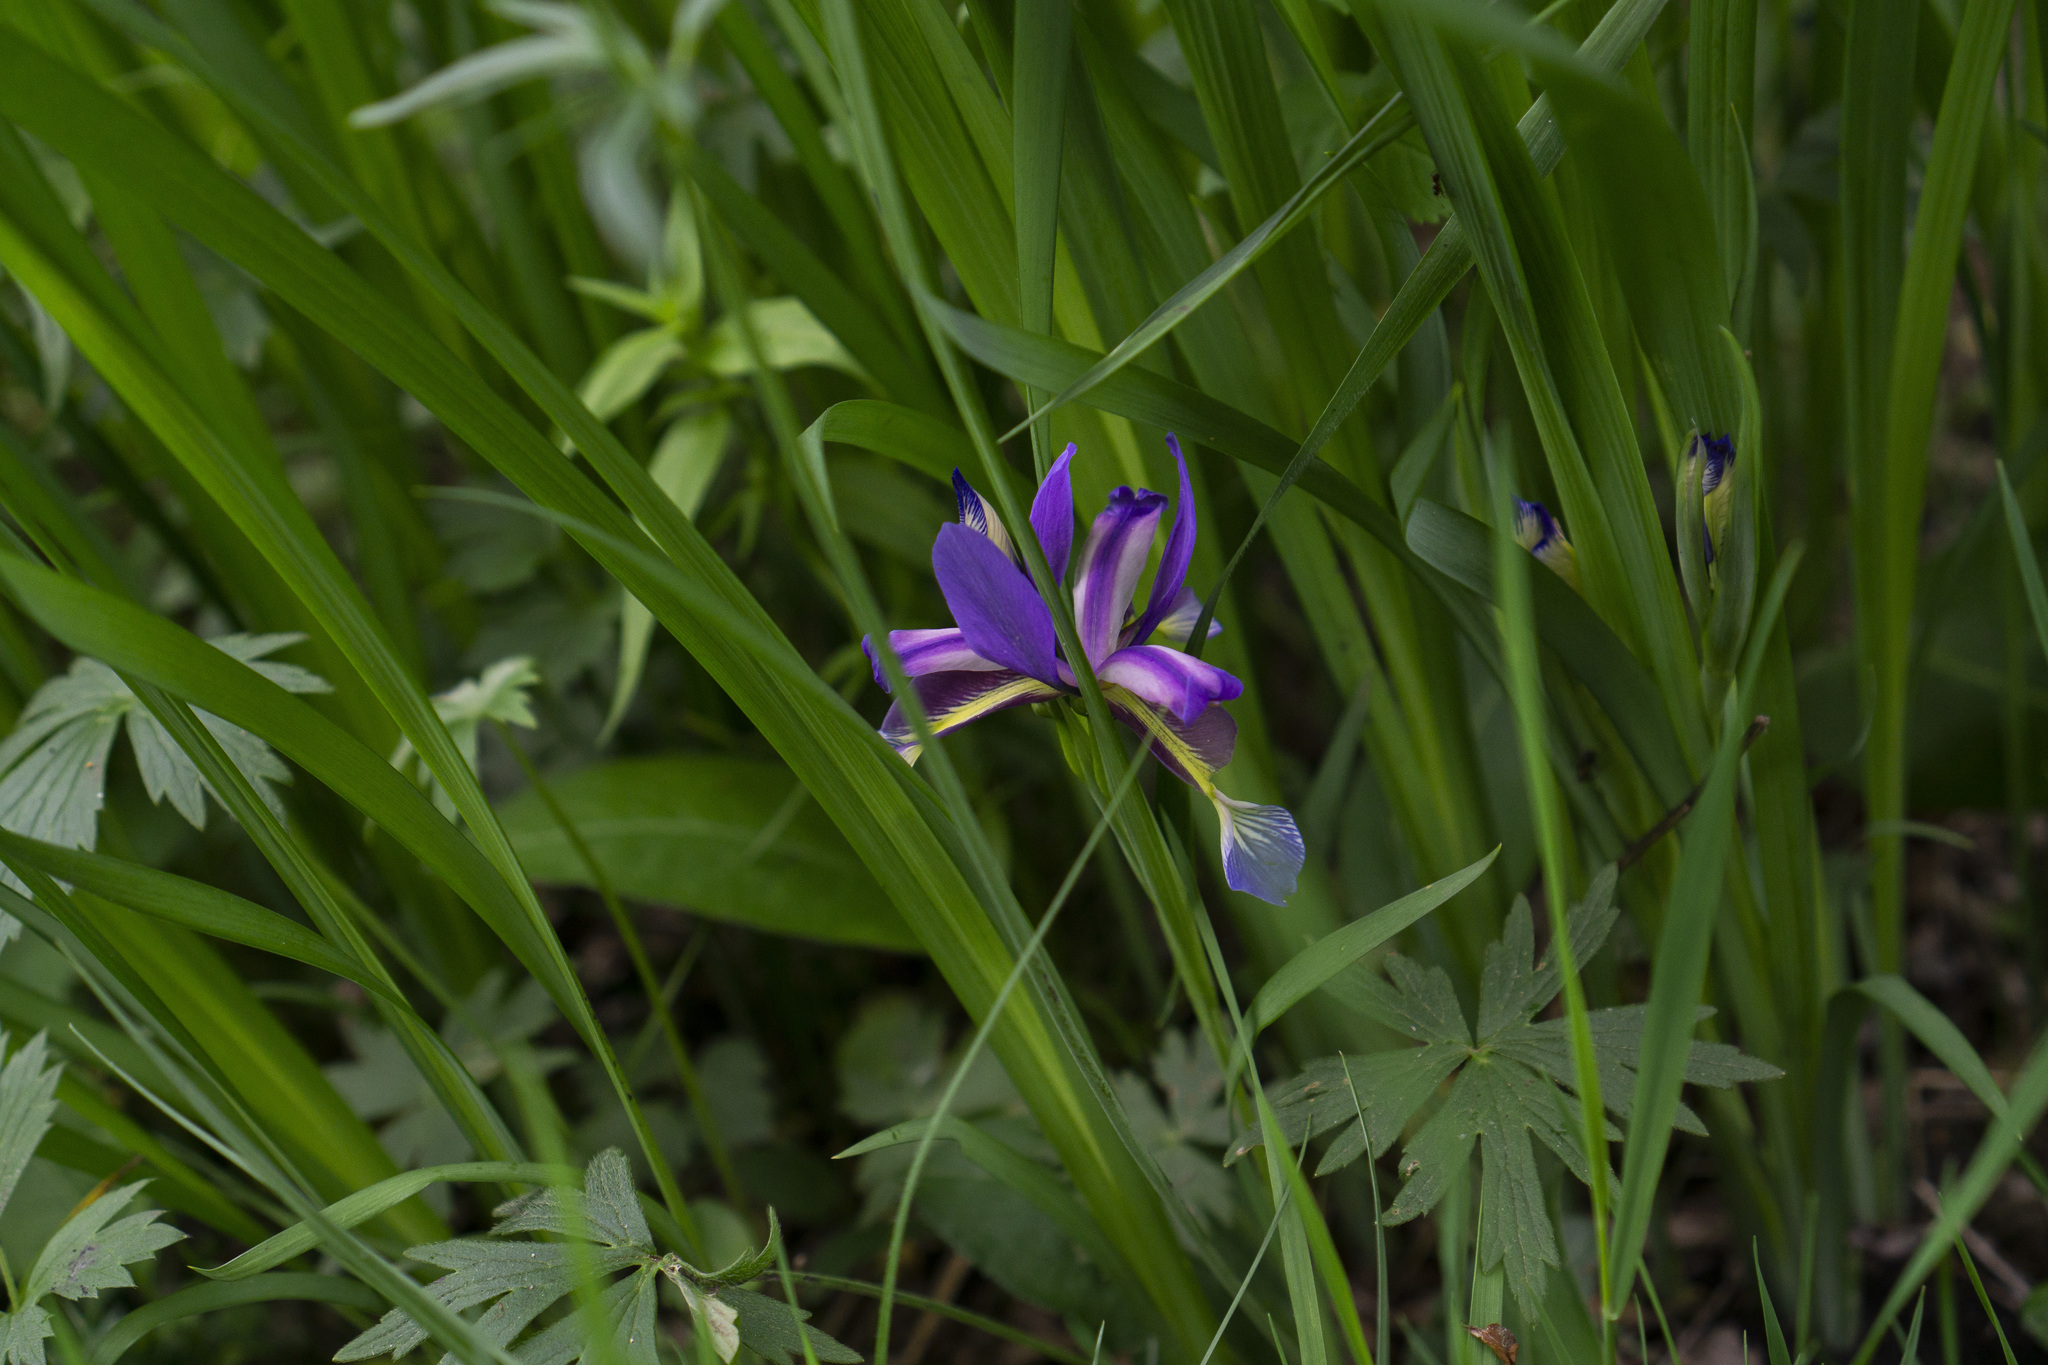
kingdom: Plantae
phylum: Tracheophyta
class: Liliopsida
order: Asparagales
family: Iridaceae
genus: Iris
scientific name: Iris graminea
